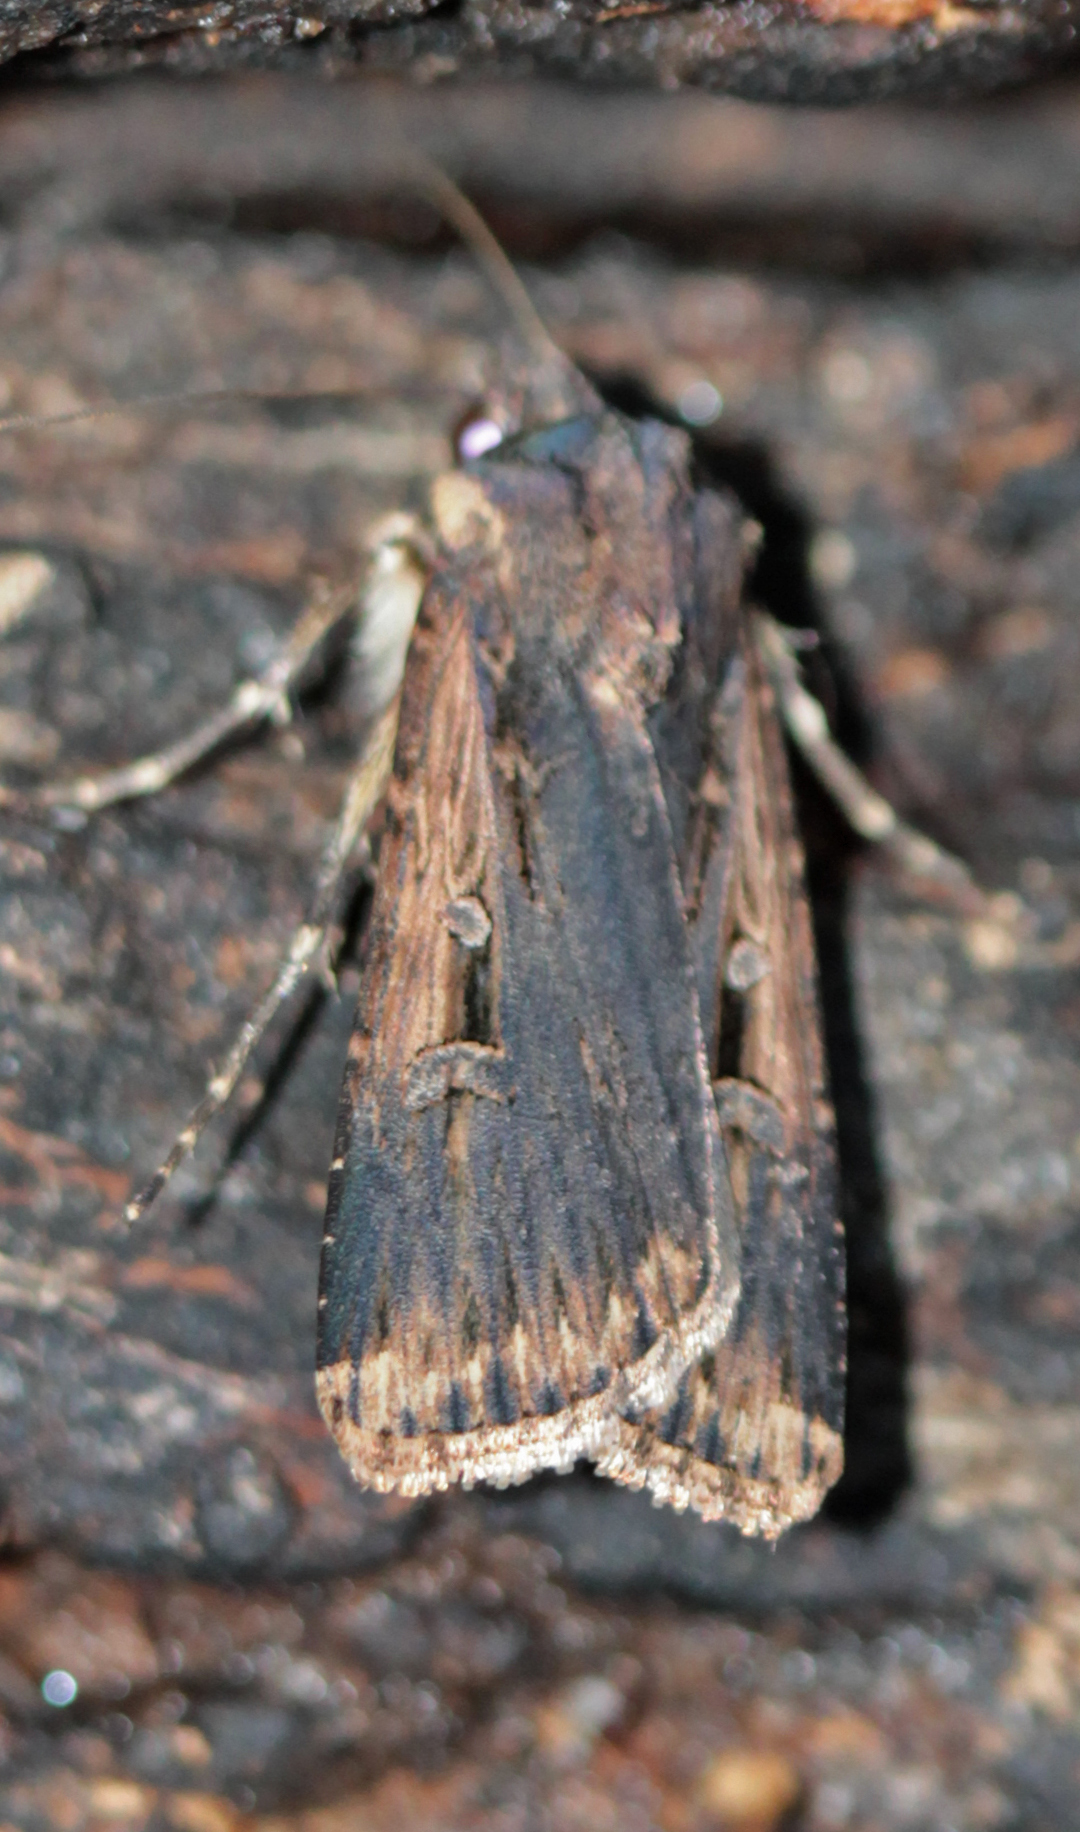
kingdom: Animalia
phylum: Arthropoda
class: Insecta
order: Lepidoptera
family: Noctuidae
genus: Feltia
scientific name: Feltia subterranea
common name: Granulate cutworm
